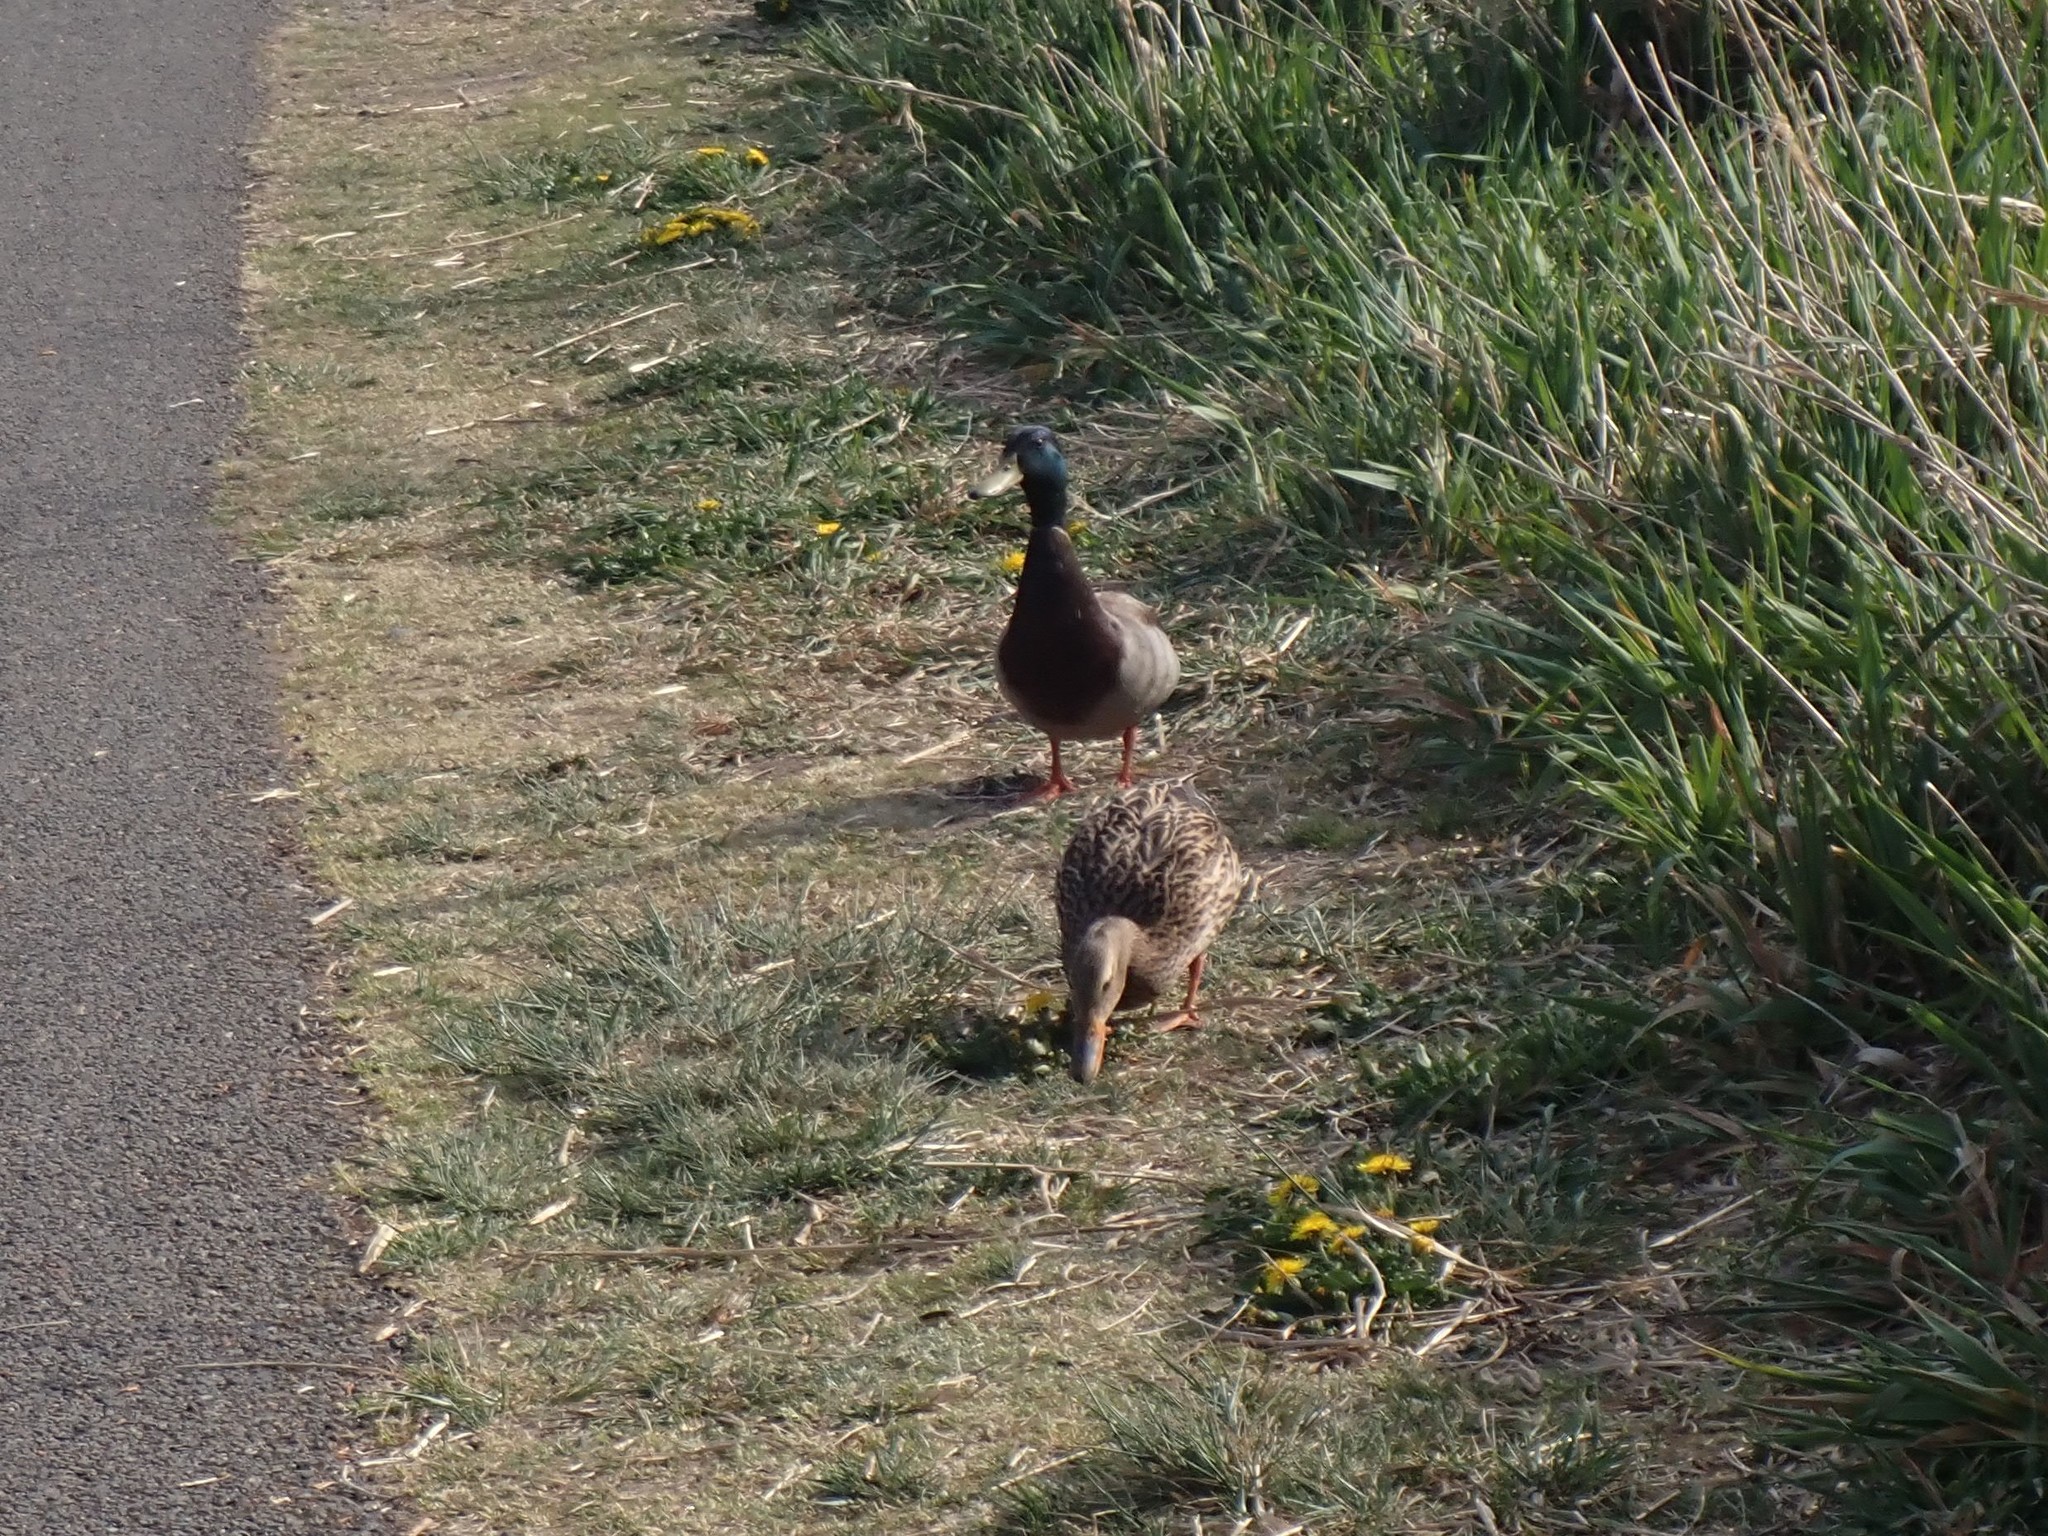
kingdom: Animalia
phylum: Chordata
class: Aves
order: Anseriformes
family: Anatidae
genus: Anas
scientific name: Anas platyrhynchos
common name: Mallard
